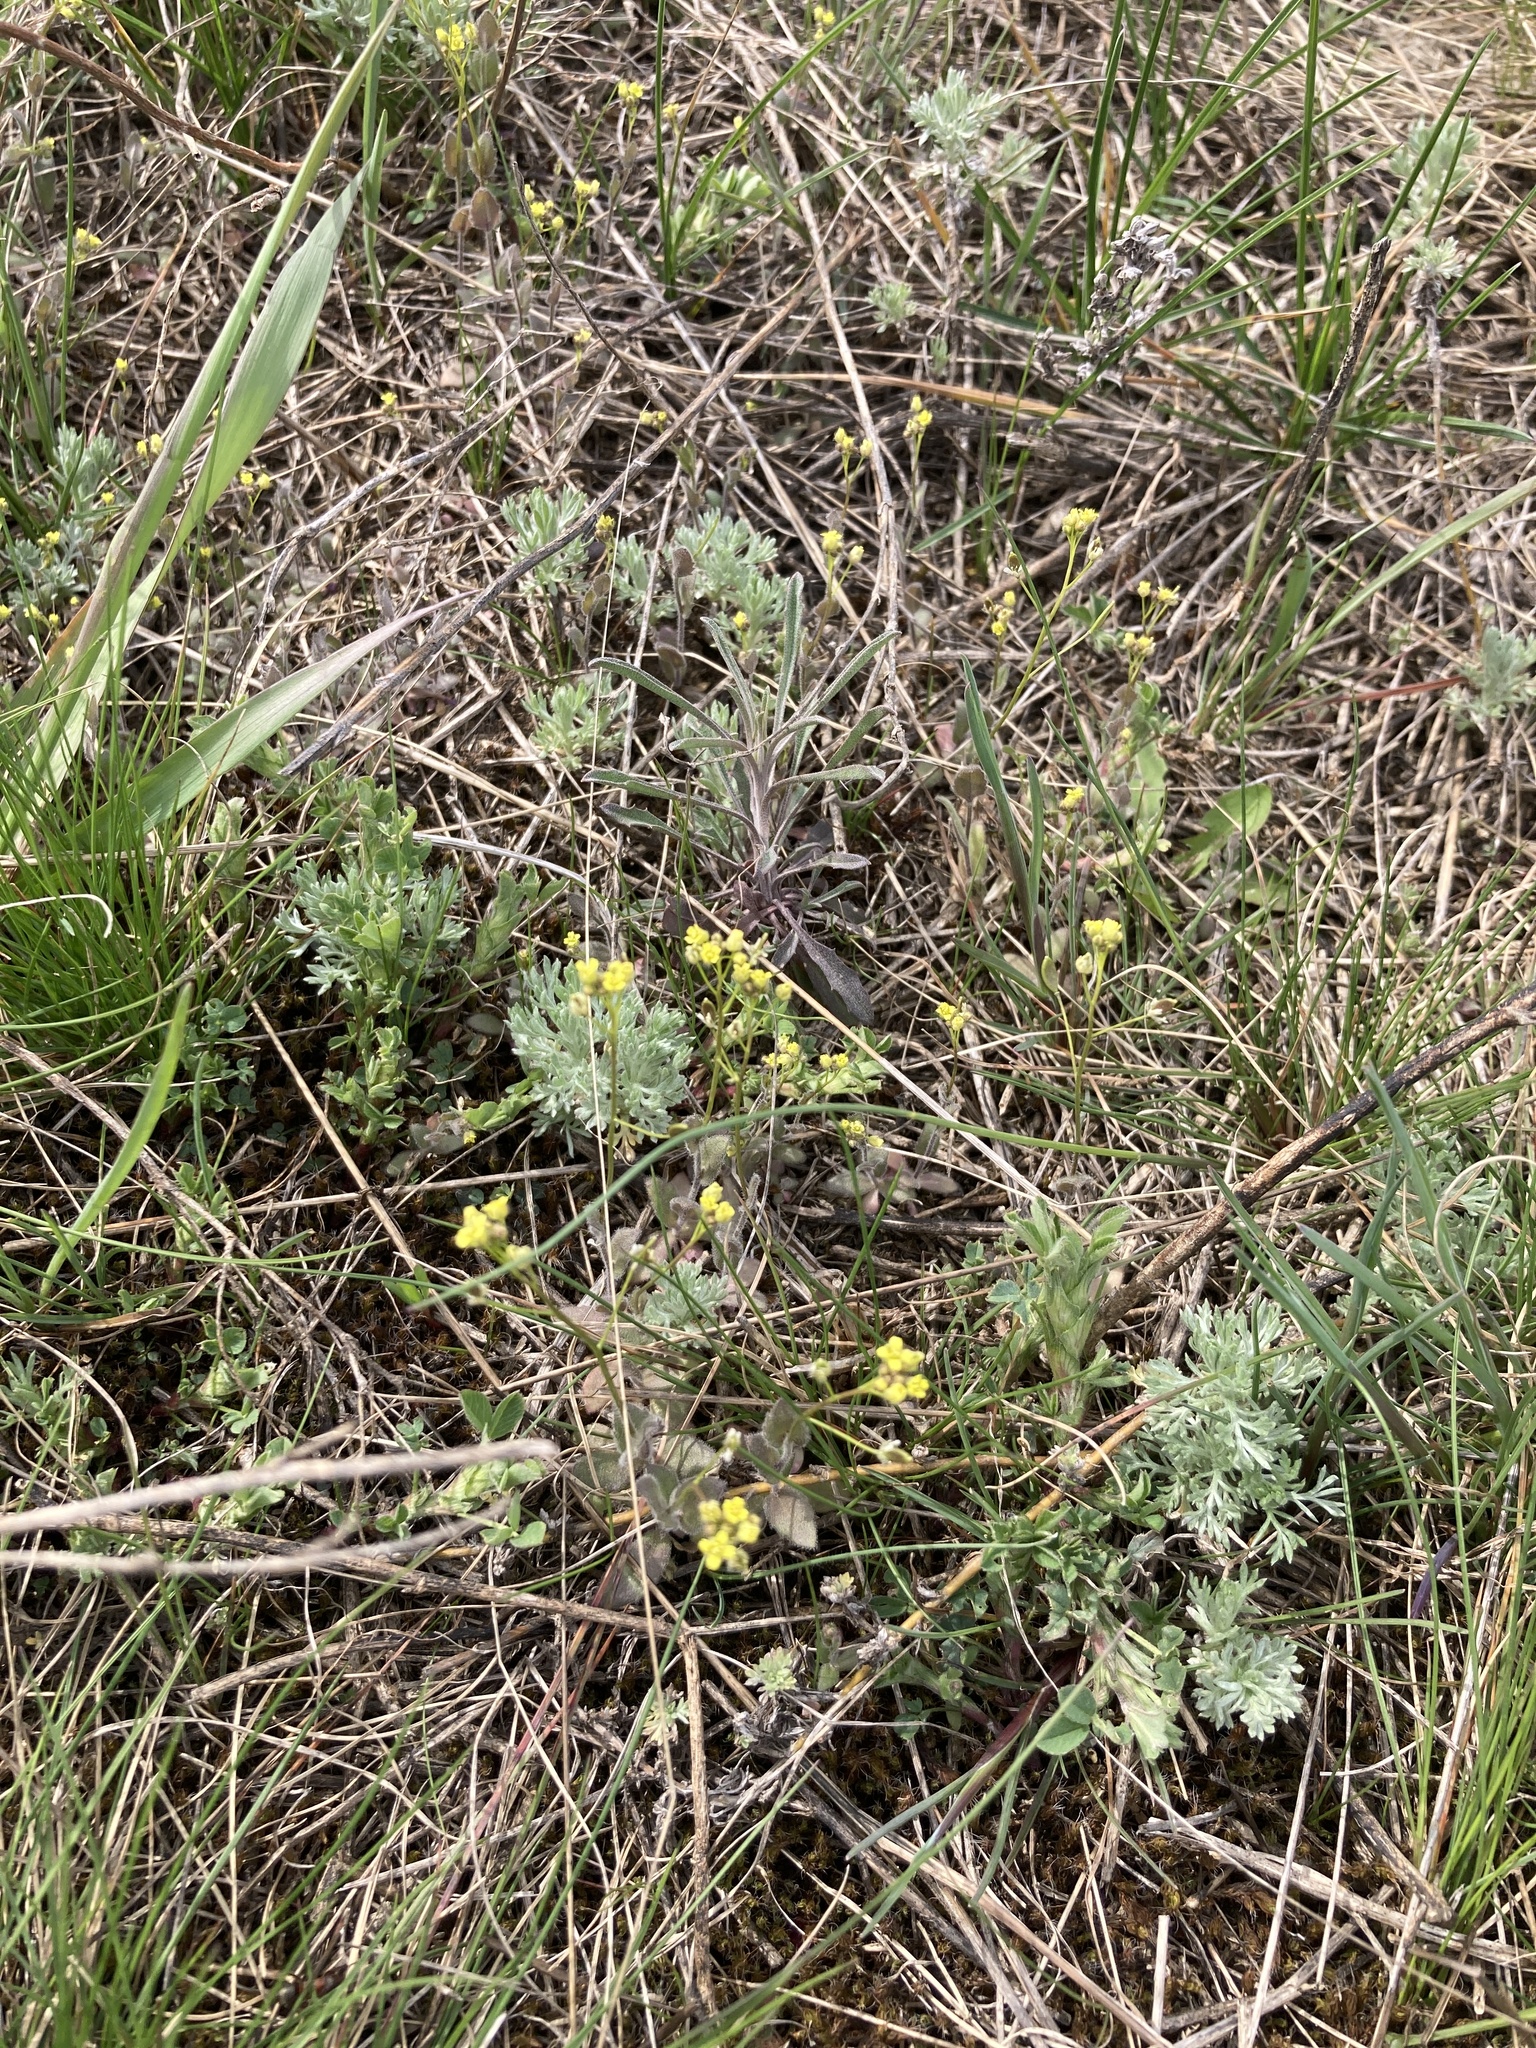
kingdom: Plantae
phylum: Tracheophyta
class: Magnoliopsida
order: Brassicales
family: Brassicaceae
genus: Draba
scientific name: Draba nemorosa
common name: Wood whitlow-grass
